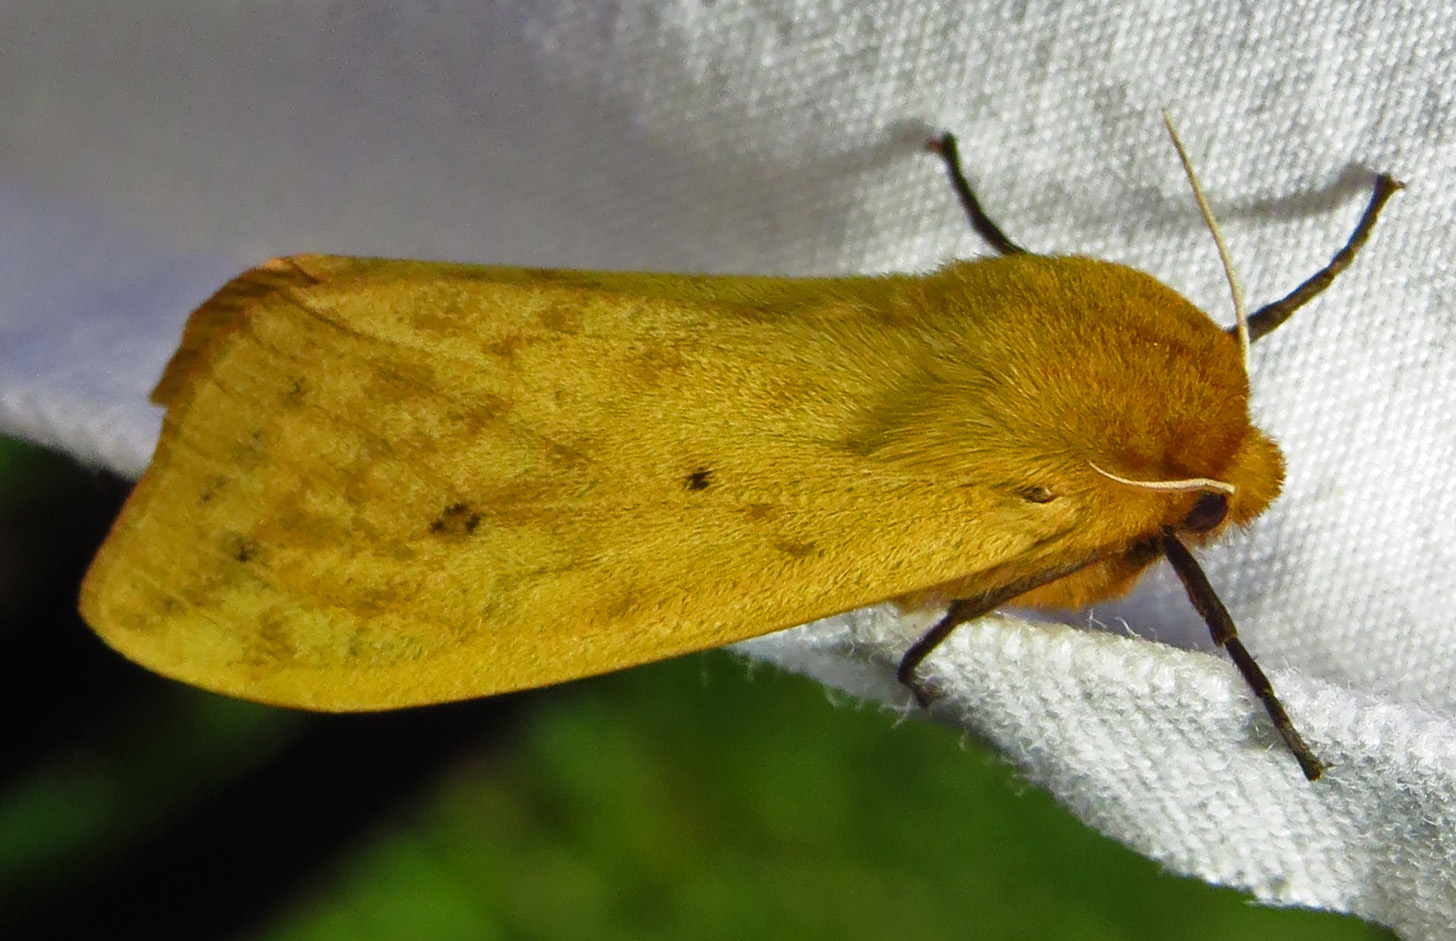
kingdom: Animalia
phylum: Arthropoda
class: Insecta
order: Lepidoptera
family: Erebidae
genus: Pyrrharctia
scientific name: Pyrrharctia isabella
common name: Isabella tiger moth
